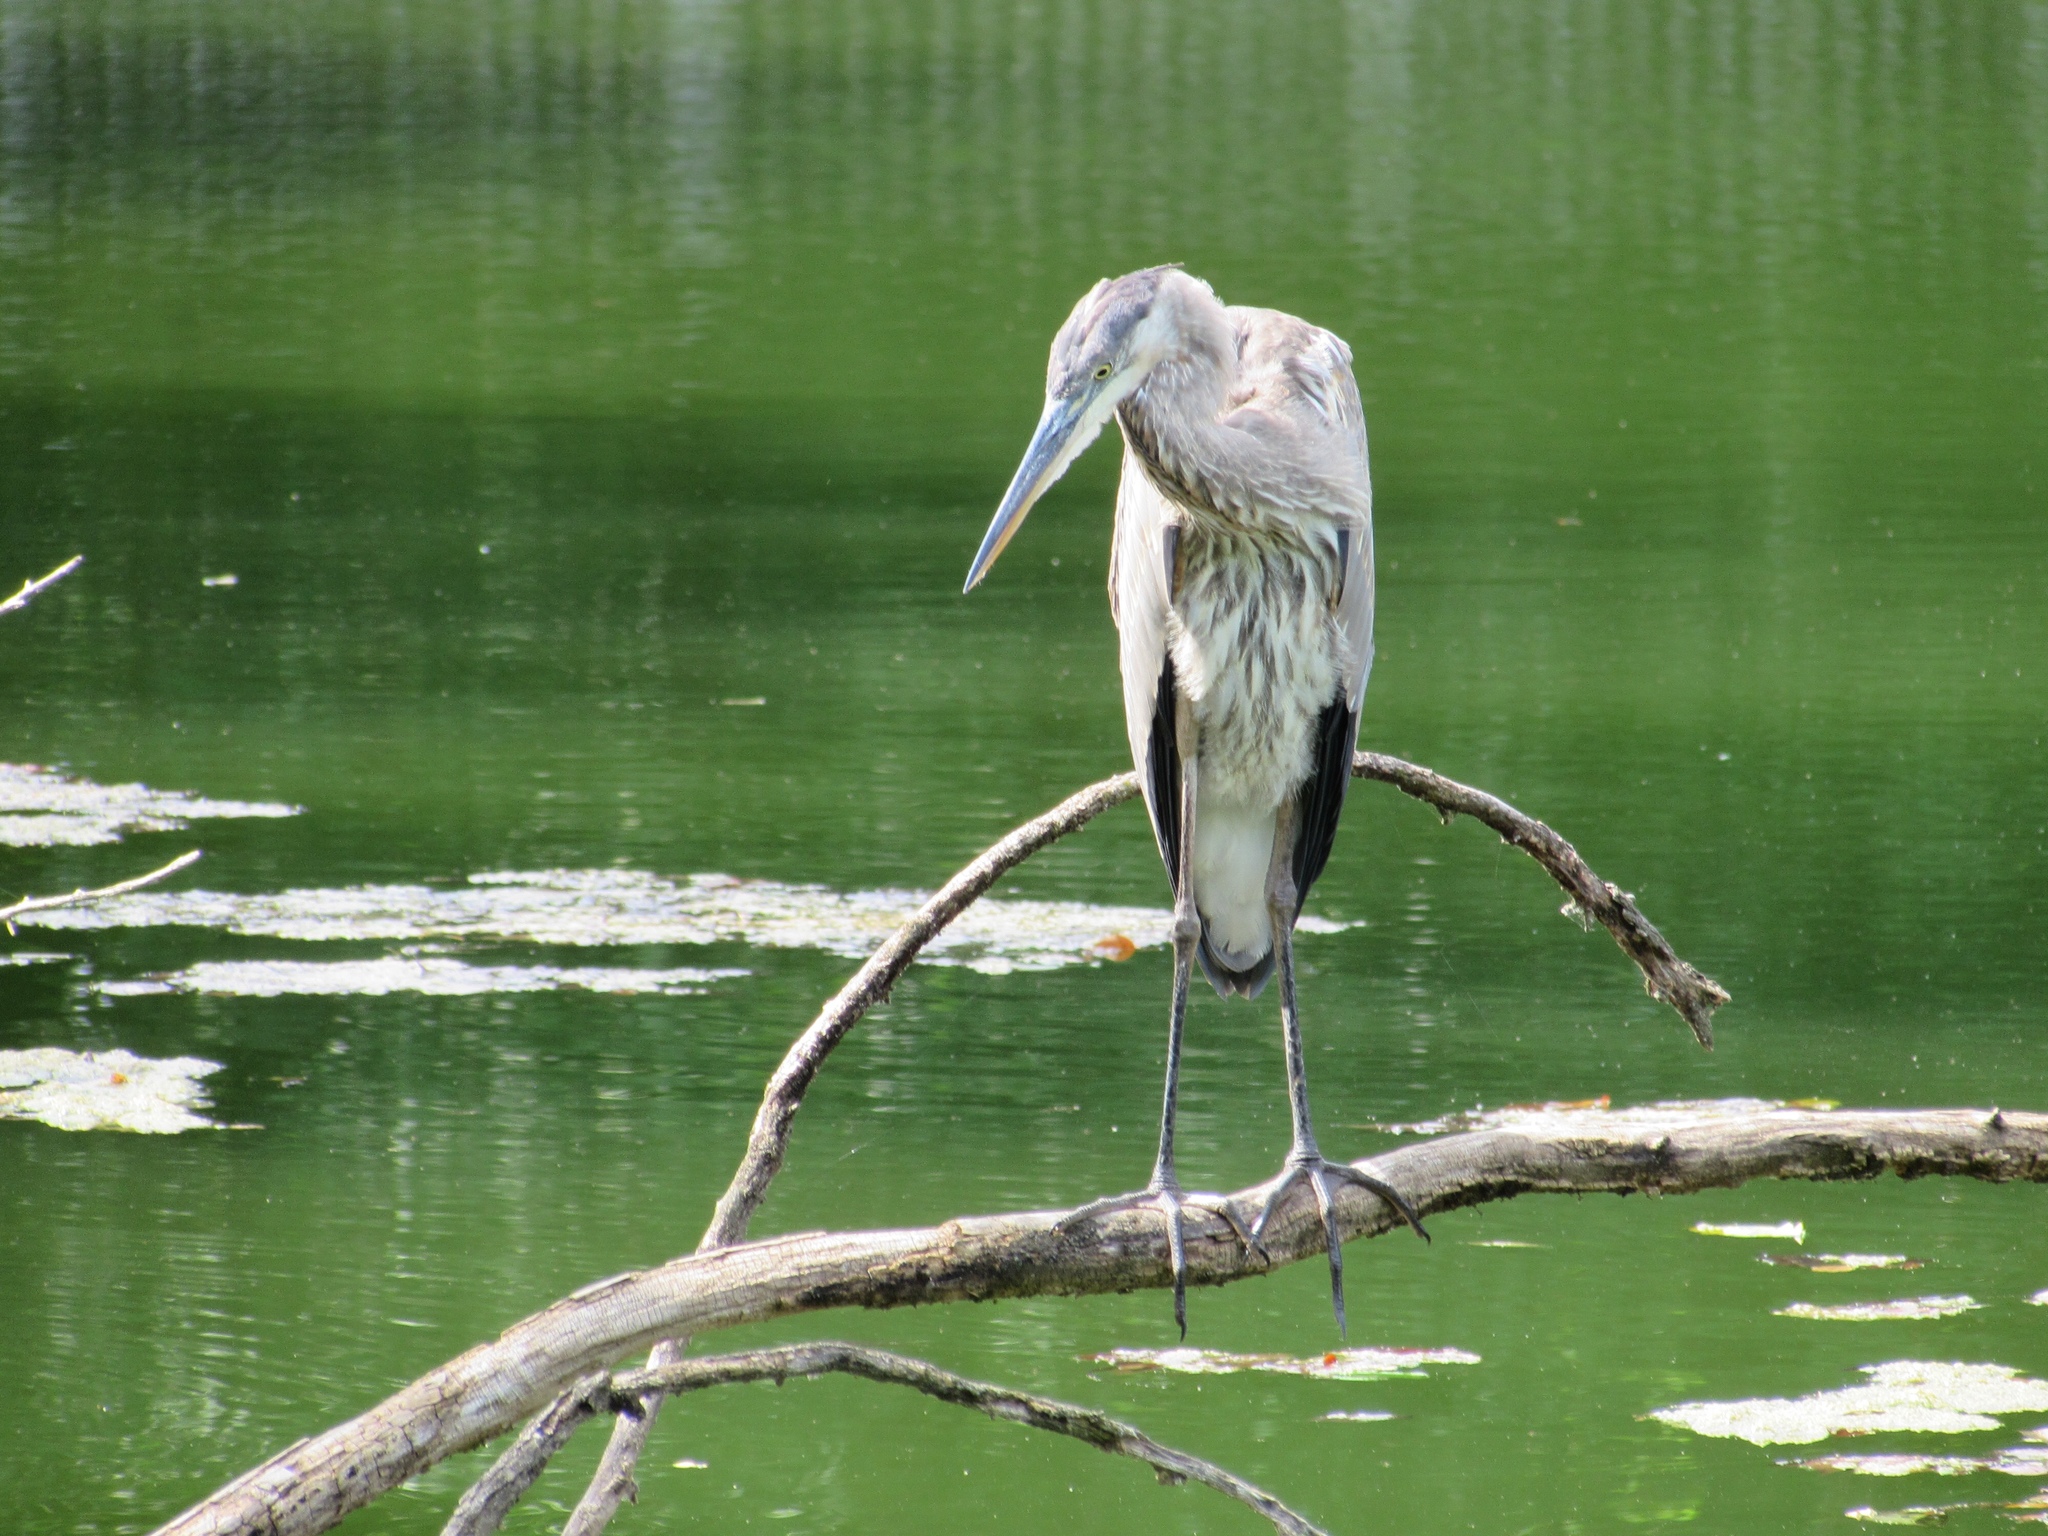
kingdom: Animalia
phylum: Chordata
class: Aves
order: Pelecaniformes
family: Ardeidae
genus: Ardea
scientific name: Ardea herodias
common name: Great blue heron
